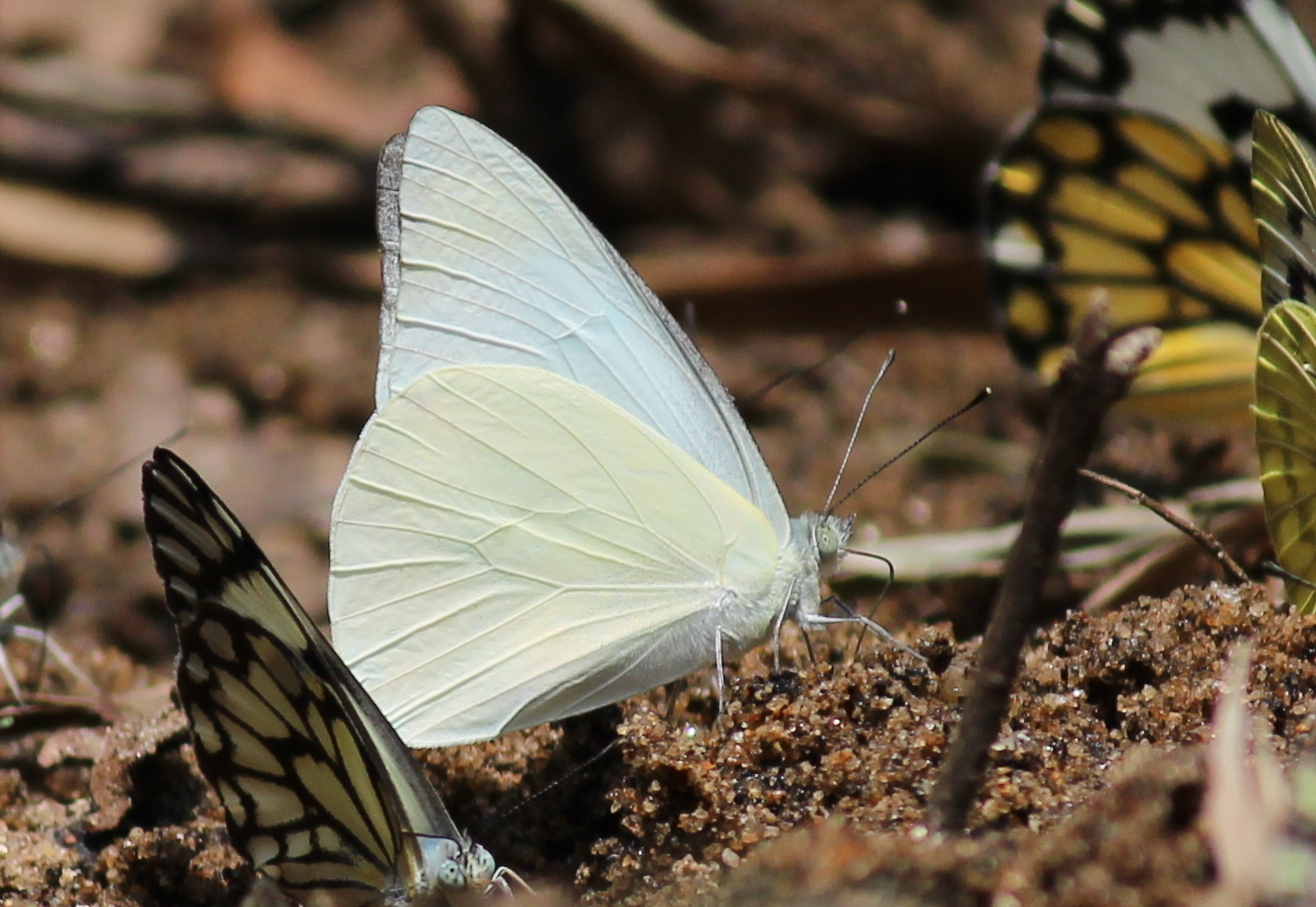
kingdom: Animalia
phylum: Arthropoda
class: Insecta
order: Lepidoptera
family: Pieridae
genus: Appias
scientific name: Appias albina
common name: Common albatross
